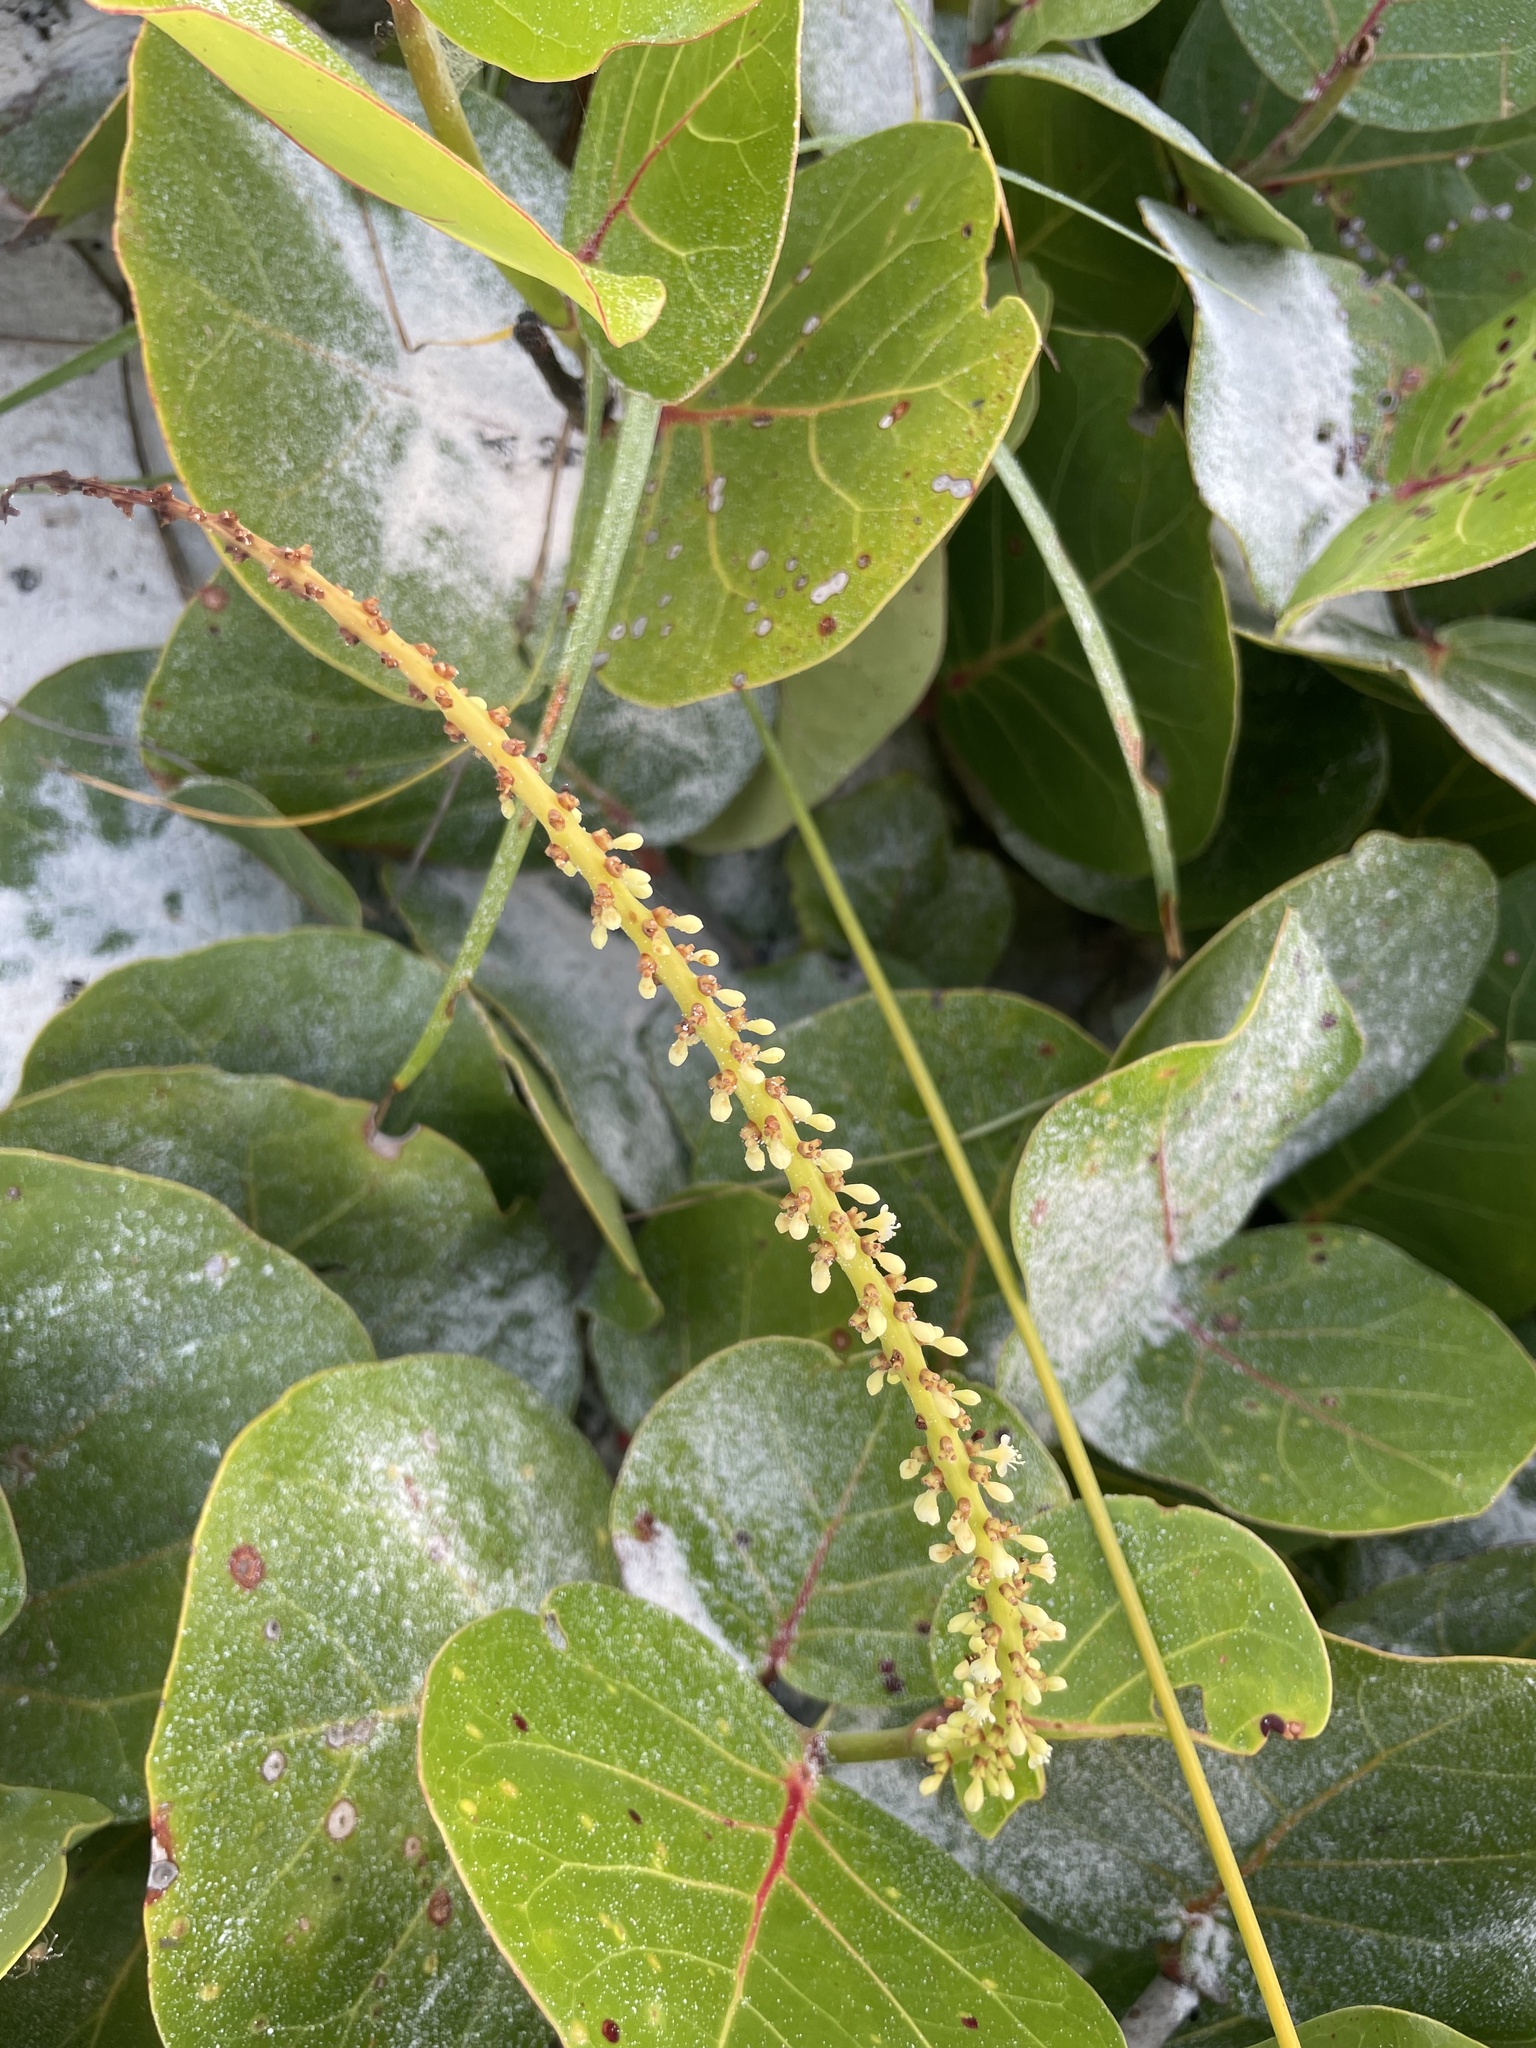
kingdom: Plantae
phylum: Tracheophyta
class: Magnoliopsida
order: Caryophyllales
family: Polygonaceae
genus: Coccoloba
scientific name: Coccoloba uvifera
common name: Seagrape
